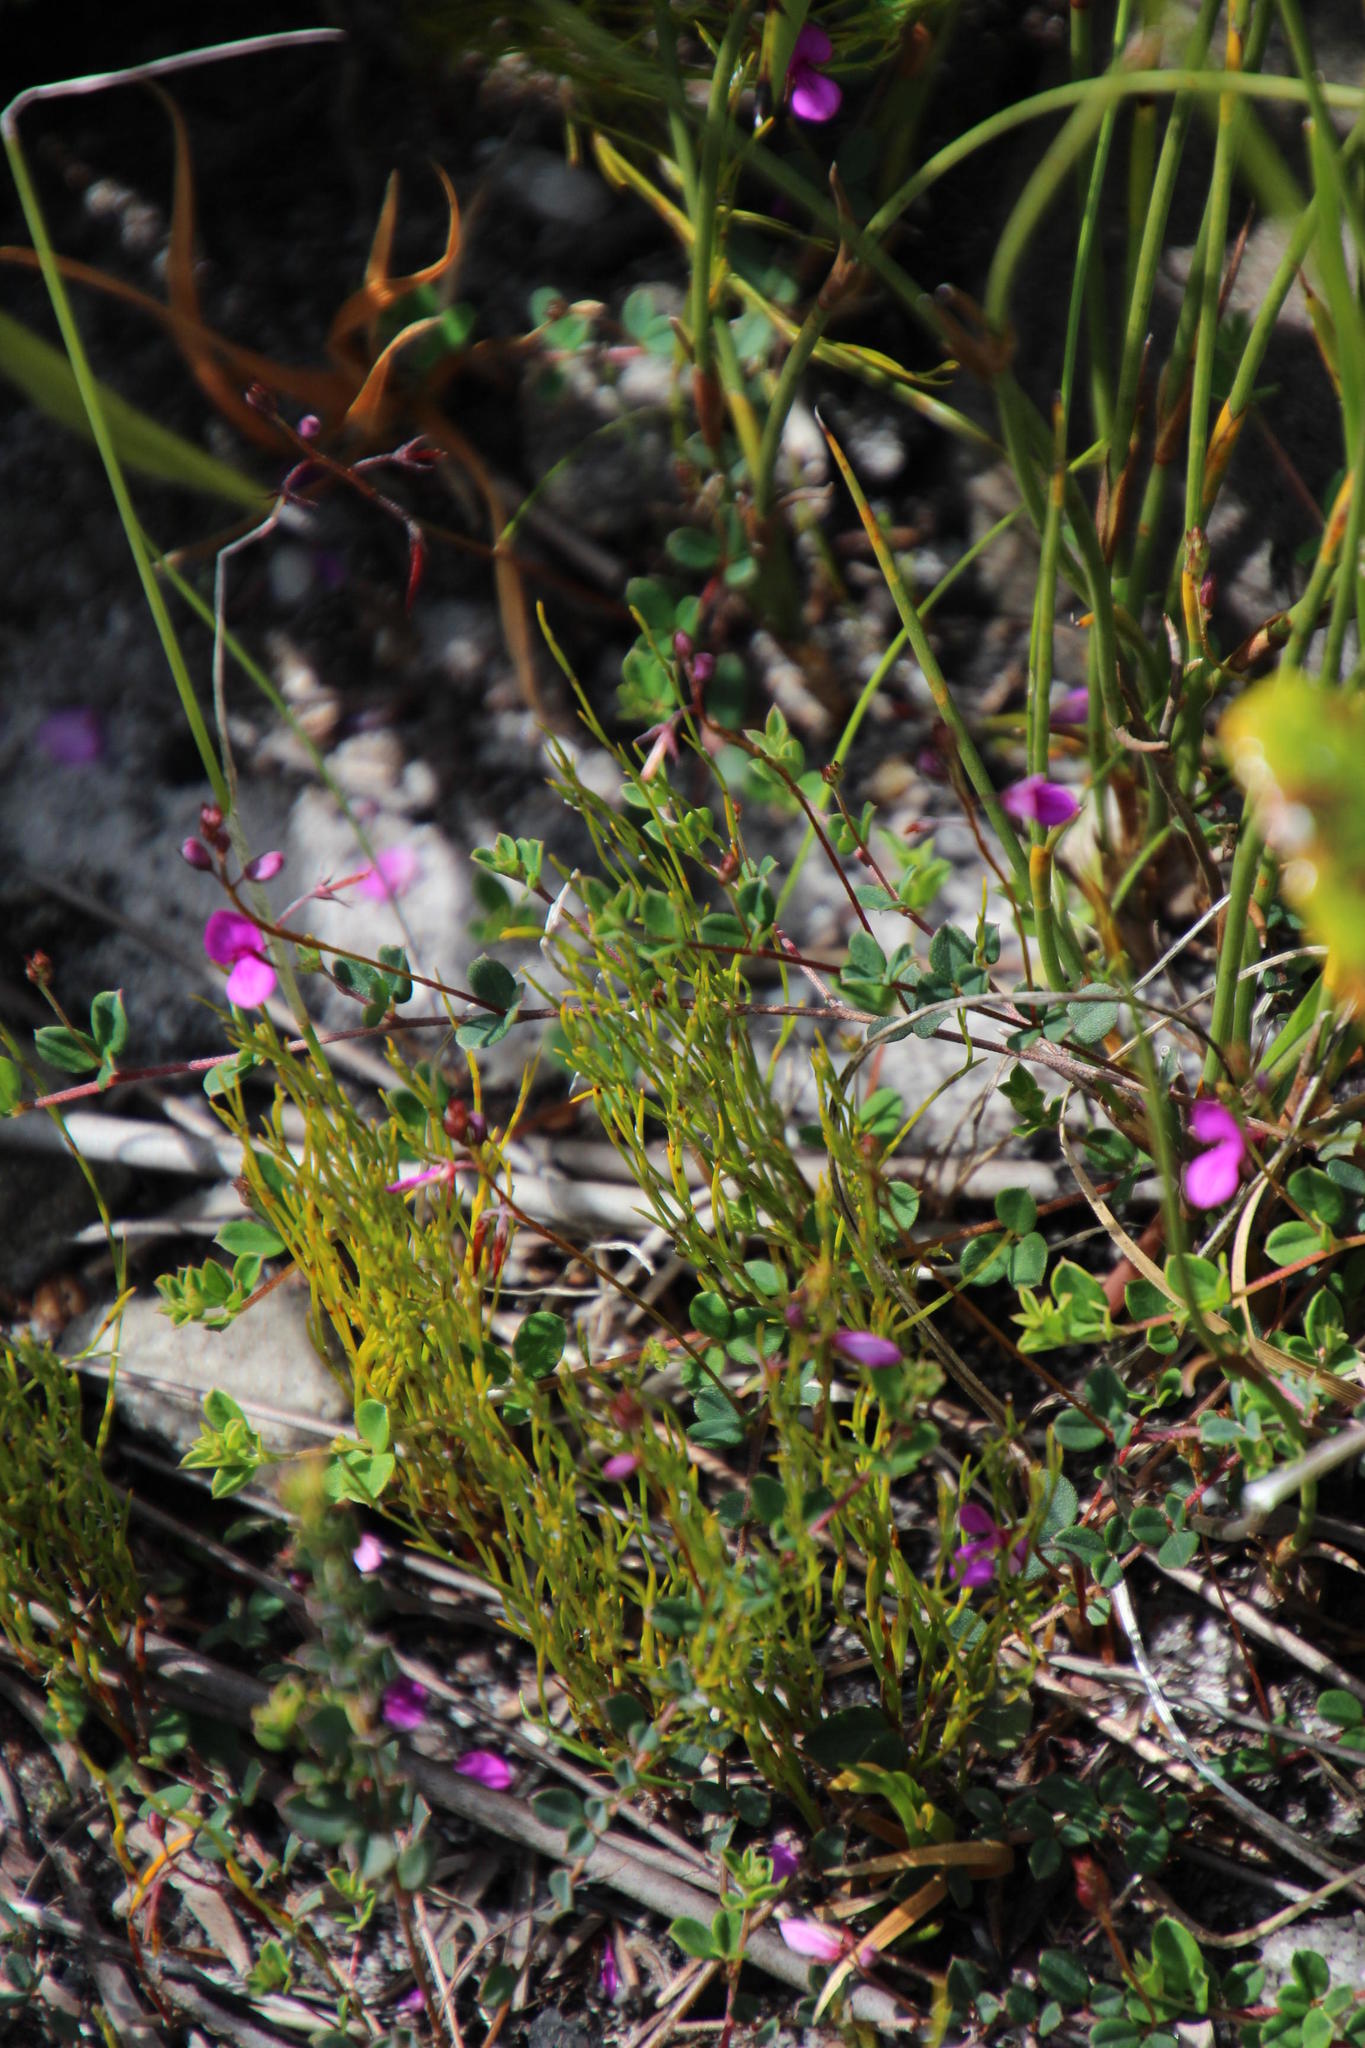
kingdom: Plantae
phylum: Tracheophyta
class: Magnoliopsida
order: Fabales
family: Fabaceae
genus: Indigofera
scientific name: Indigofera sarmentosa
